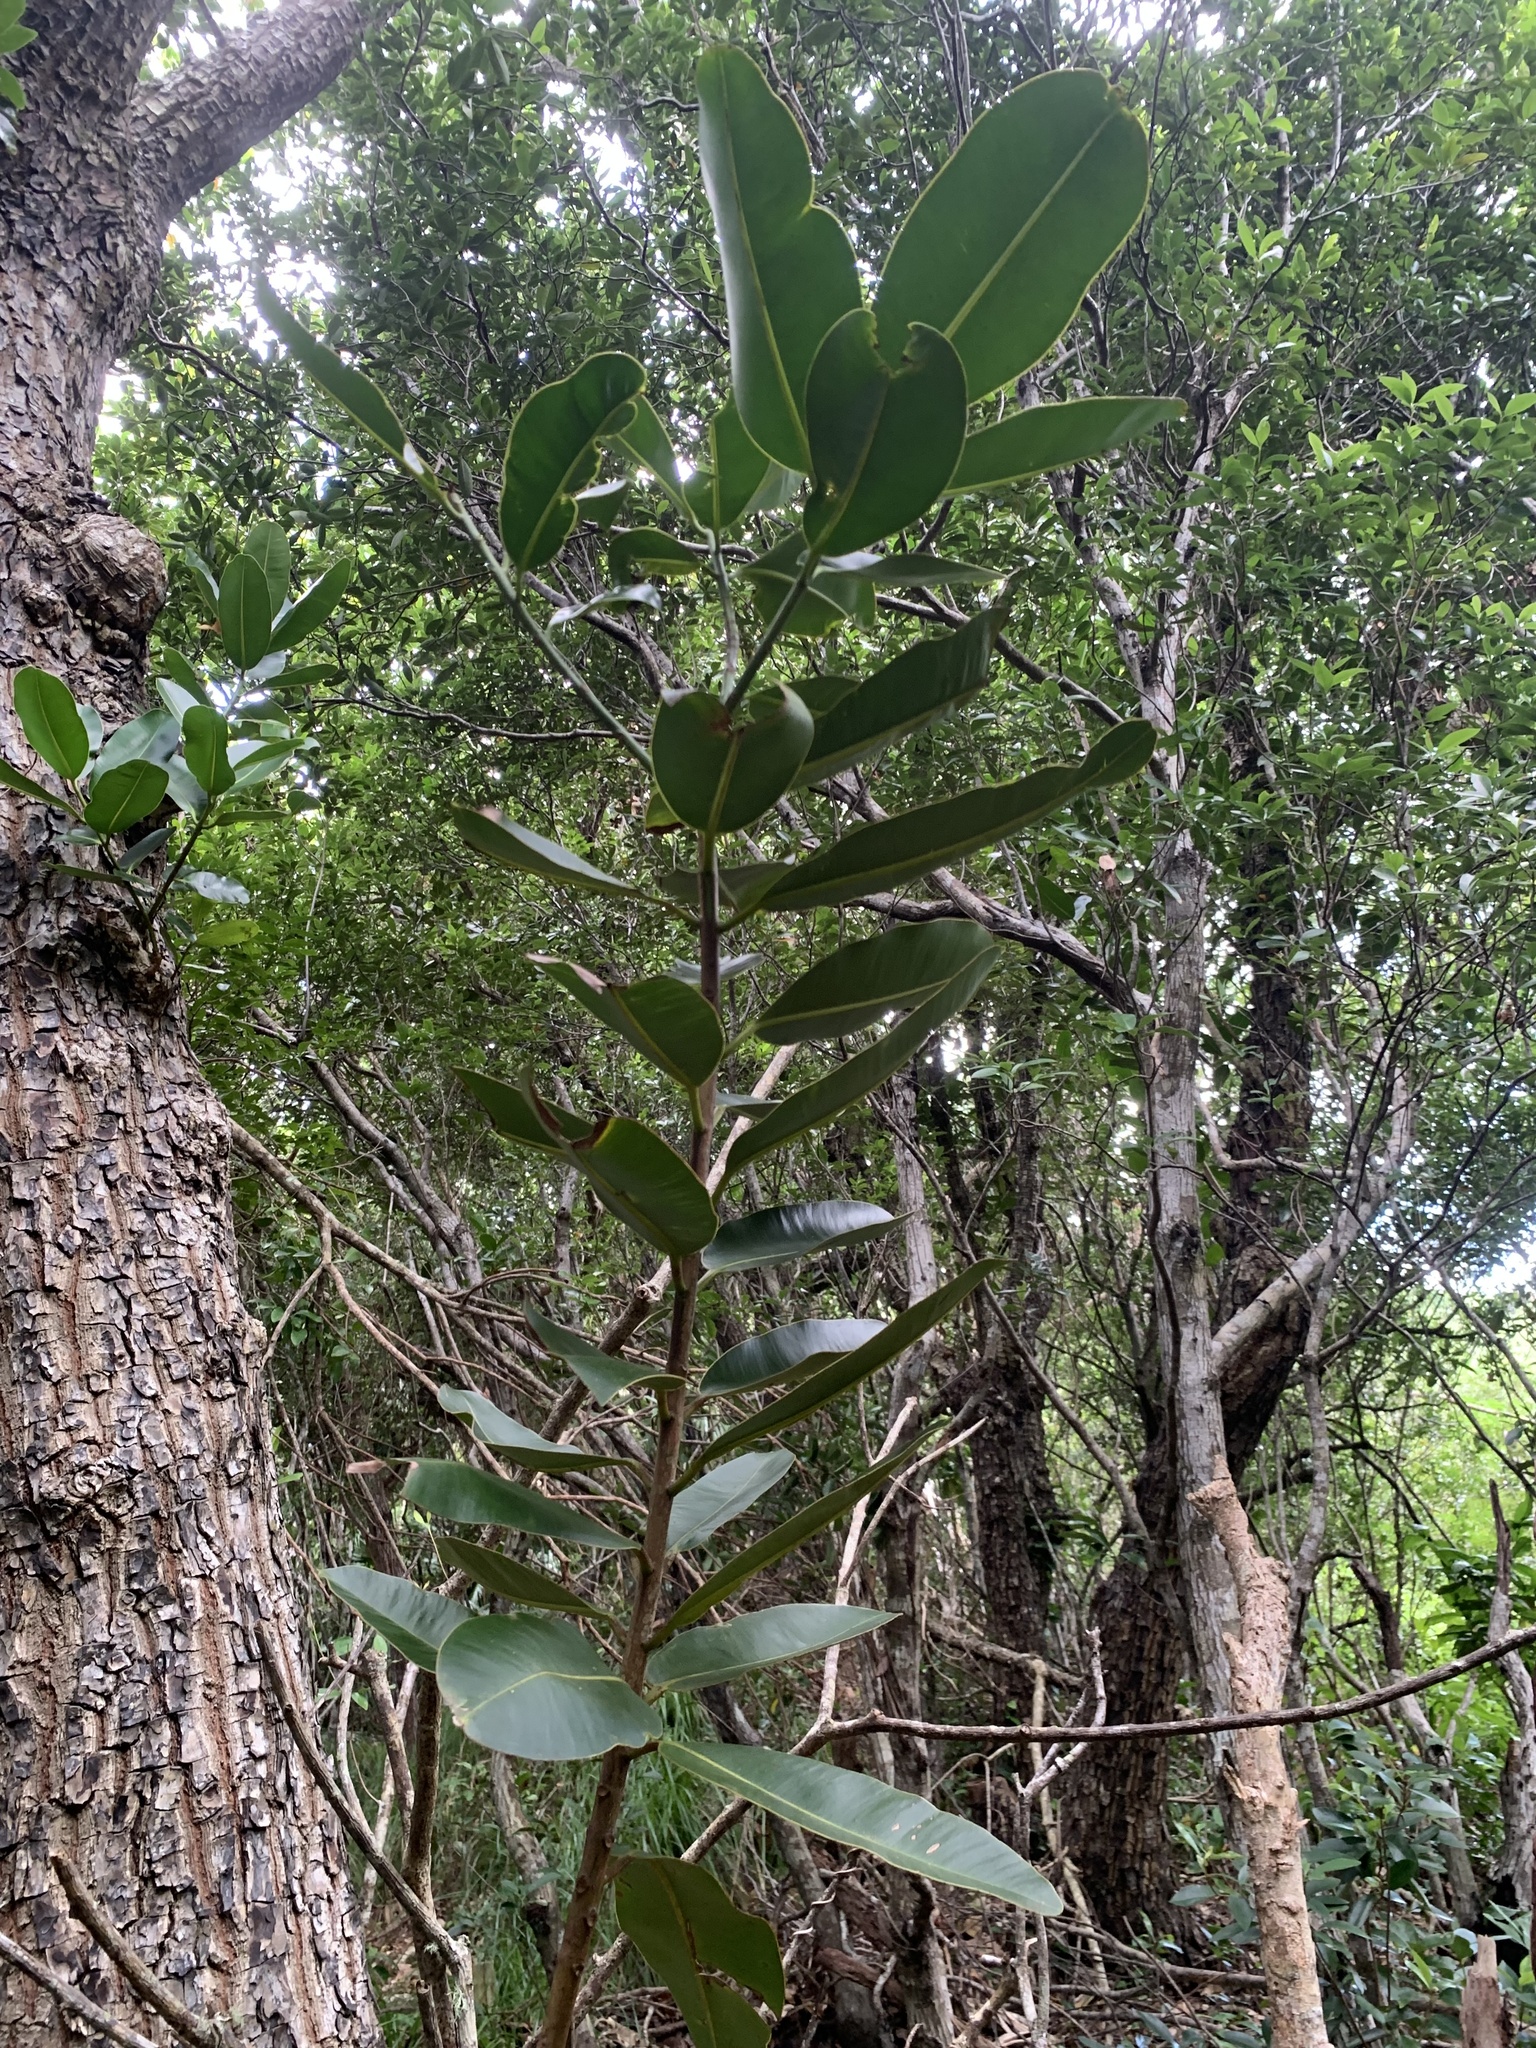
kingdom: Plantae
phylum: Tracheophyta
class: Magnoliopsida
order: Malpighiales
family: Calophyllaceae
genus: Calophyllum
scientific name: Calophyllum inophyllum
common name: Alexandrian laurel
